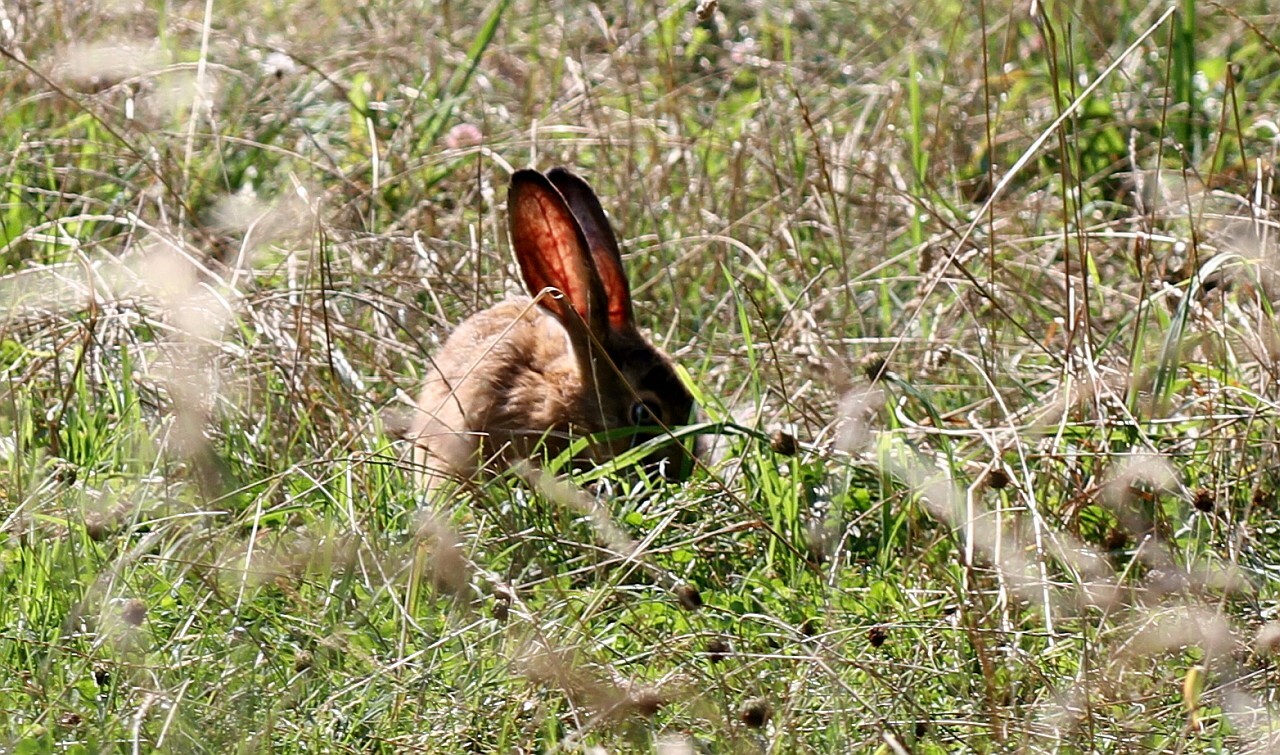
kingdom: Animalia
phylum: Chordata
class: Mammalia
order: Lagomorpha
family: Leporidae
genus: Lepus
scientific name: Lepus europaeus
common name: European hare
